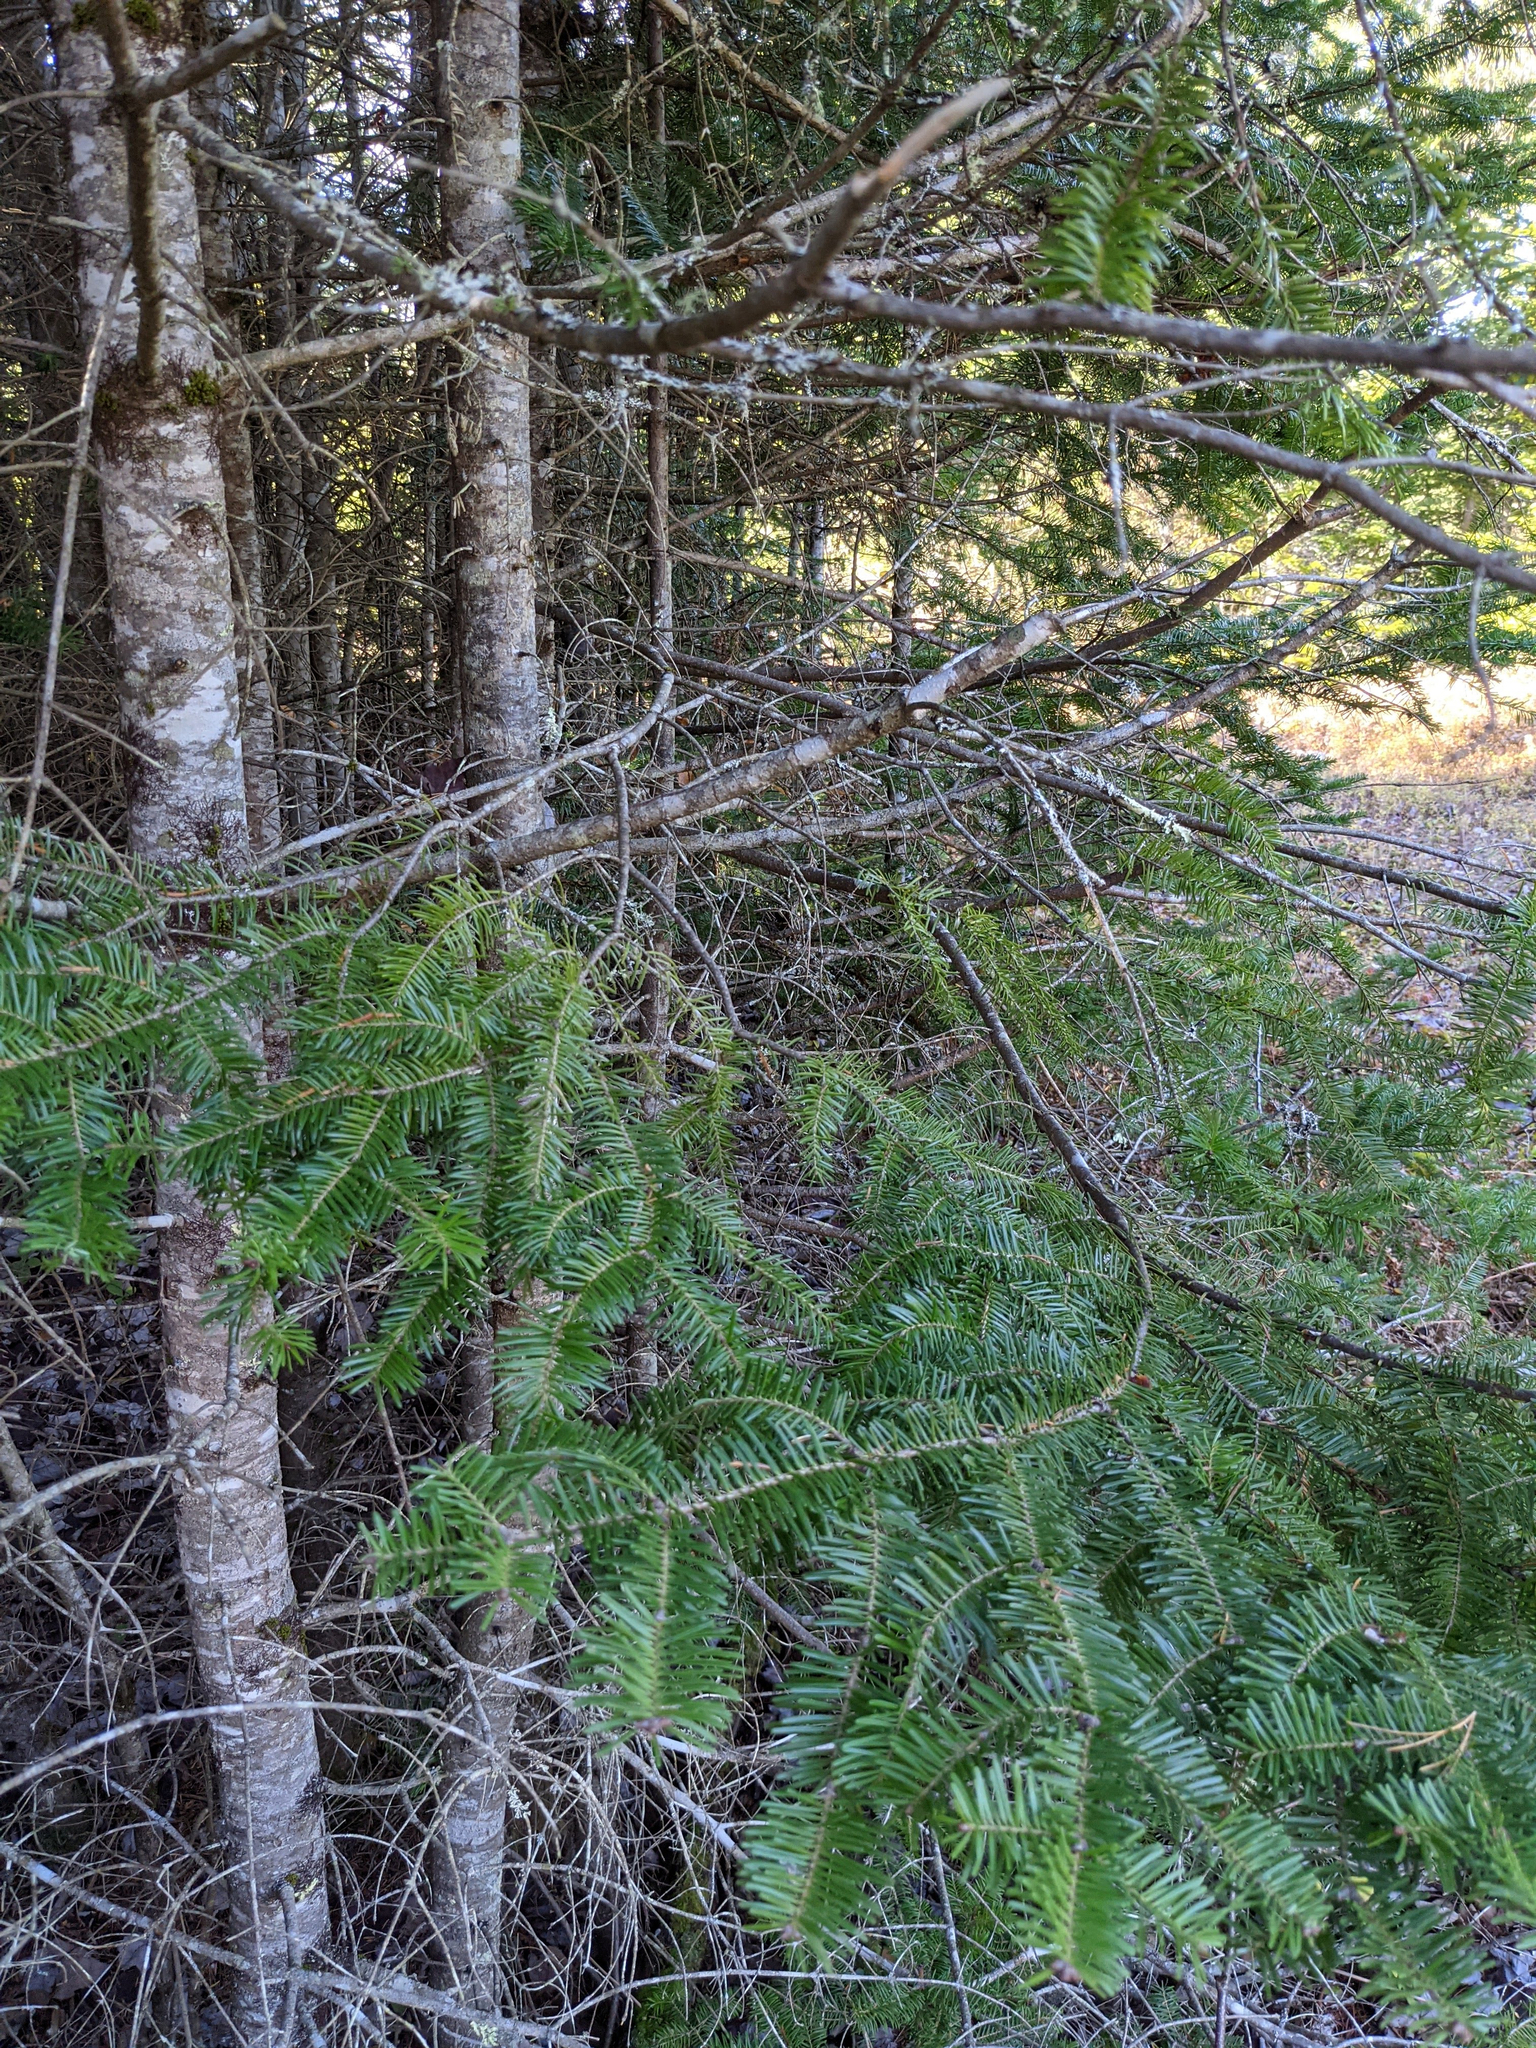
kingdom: Plantae
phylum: Tracheophyta
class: Pinopsida
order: Pinales
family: Pinaceae
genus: Abies
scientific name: Abies balsamea
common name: Balsam fir
